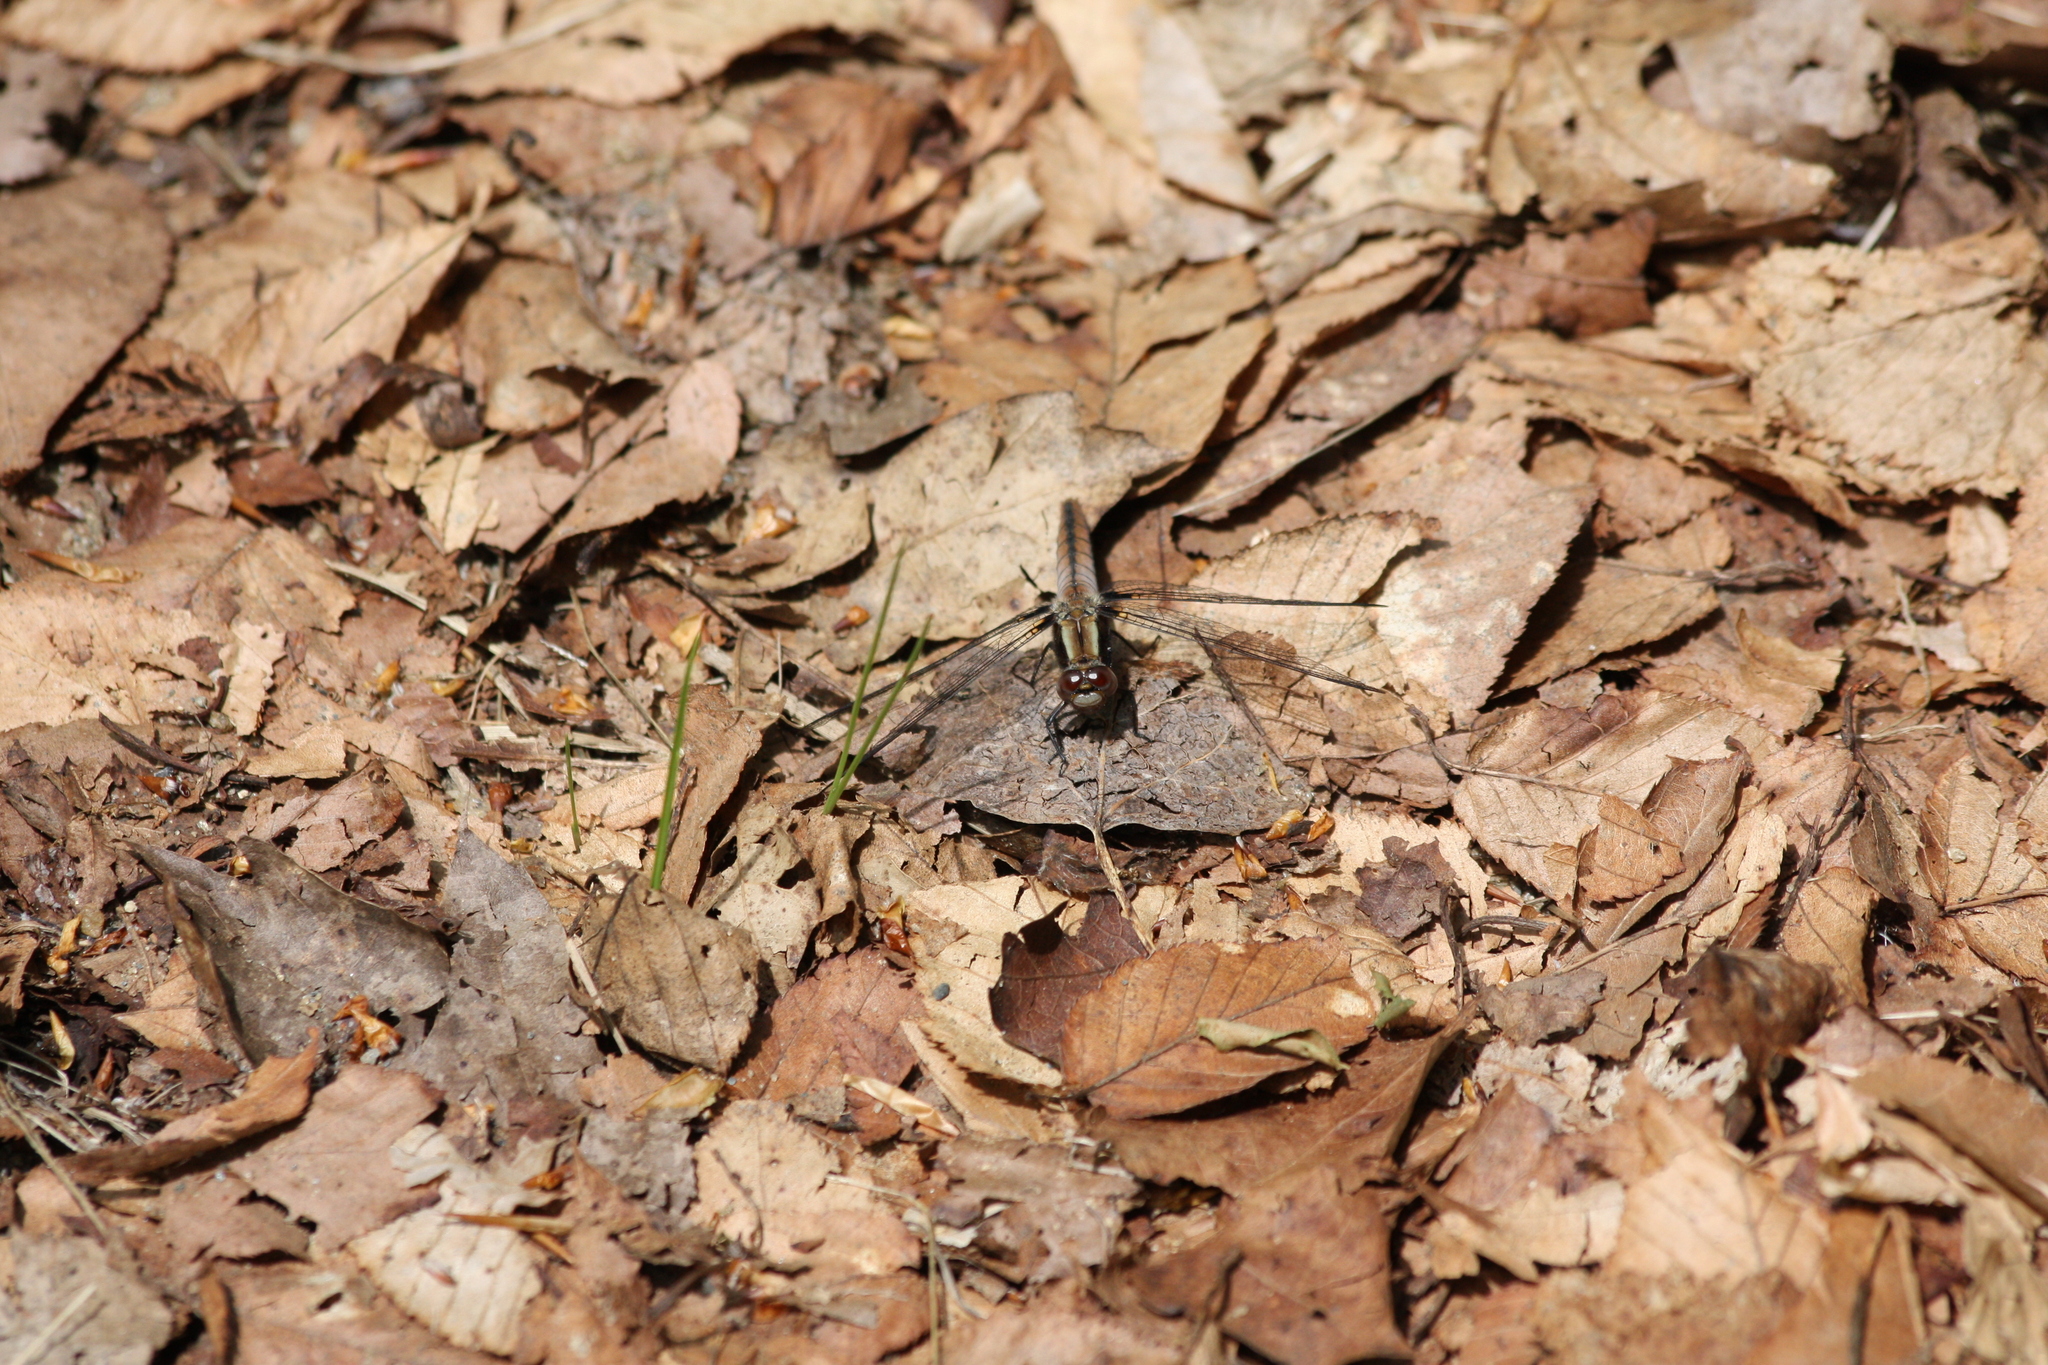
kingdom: Animalia
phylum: Arthropoda
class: Insecta
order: Odonata
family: Libellulidae
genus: Ladona
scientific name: Ladona julia
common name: Chalk-fronted corporal
